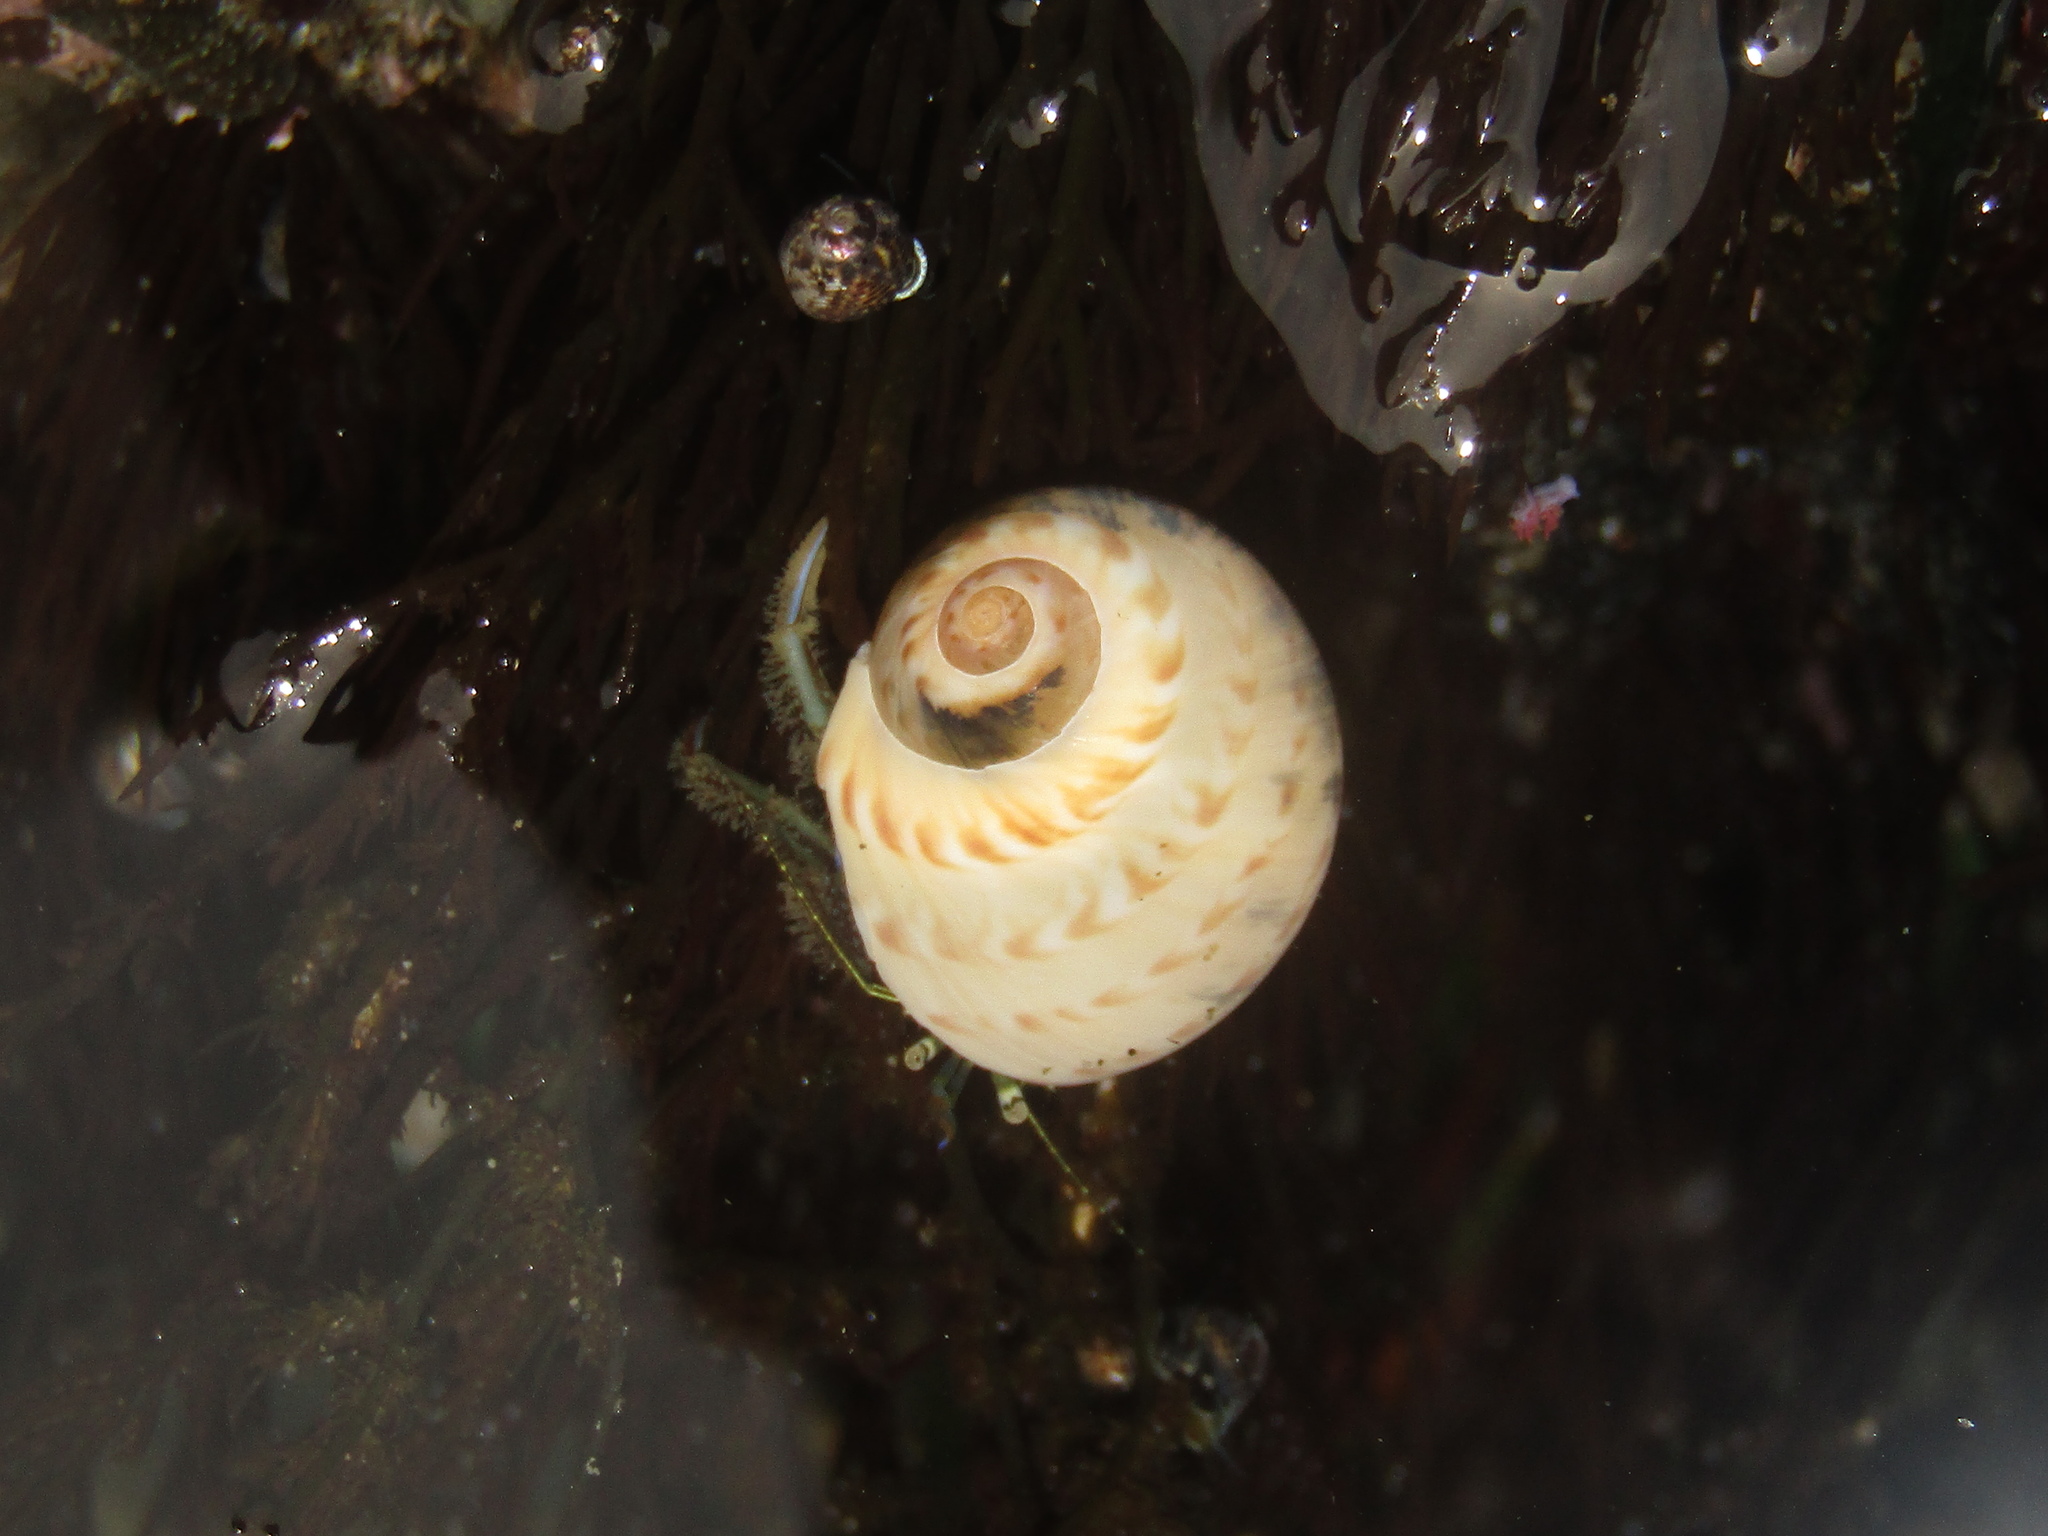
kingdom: Animalia
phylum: Arthropoda
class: Malacostraca
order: Decapoda
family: Paguridae
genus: Pagurus
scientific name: Pagurus novizealandiae
